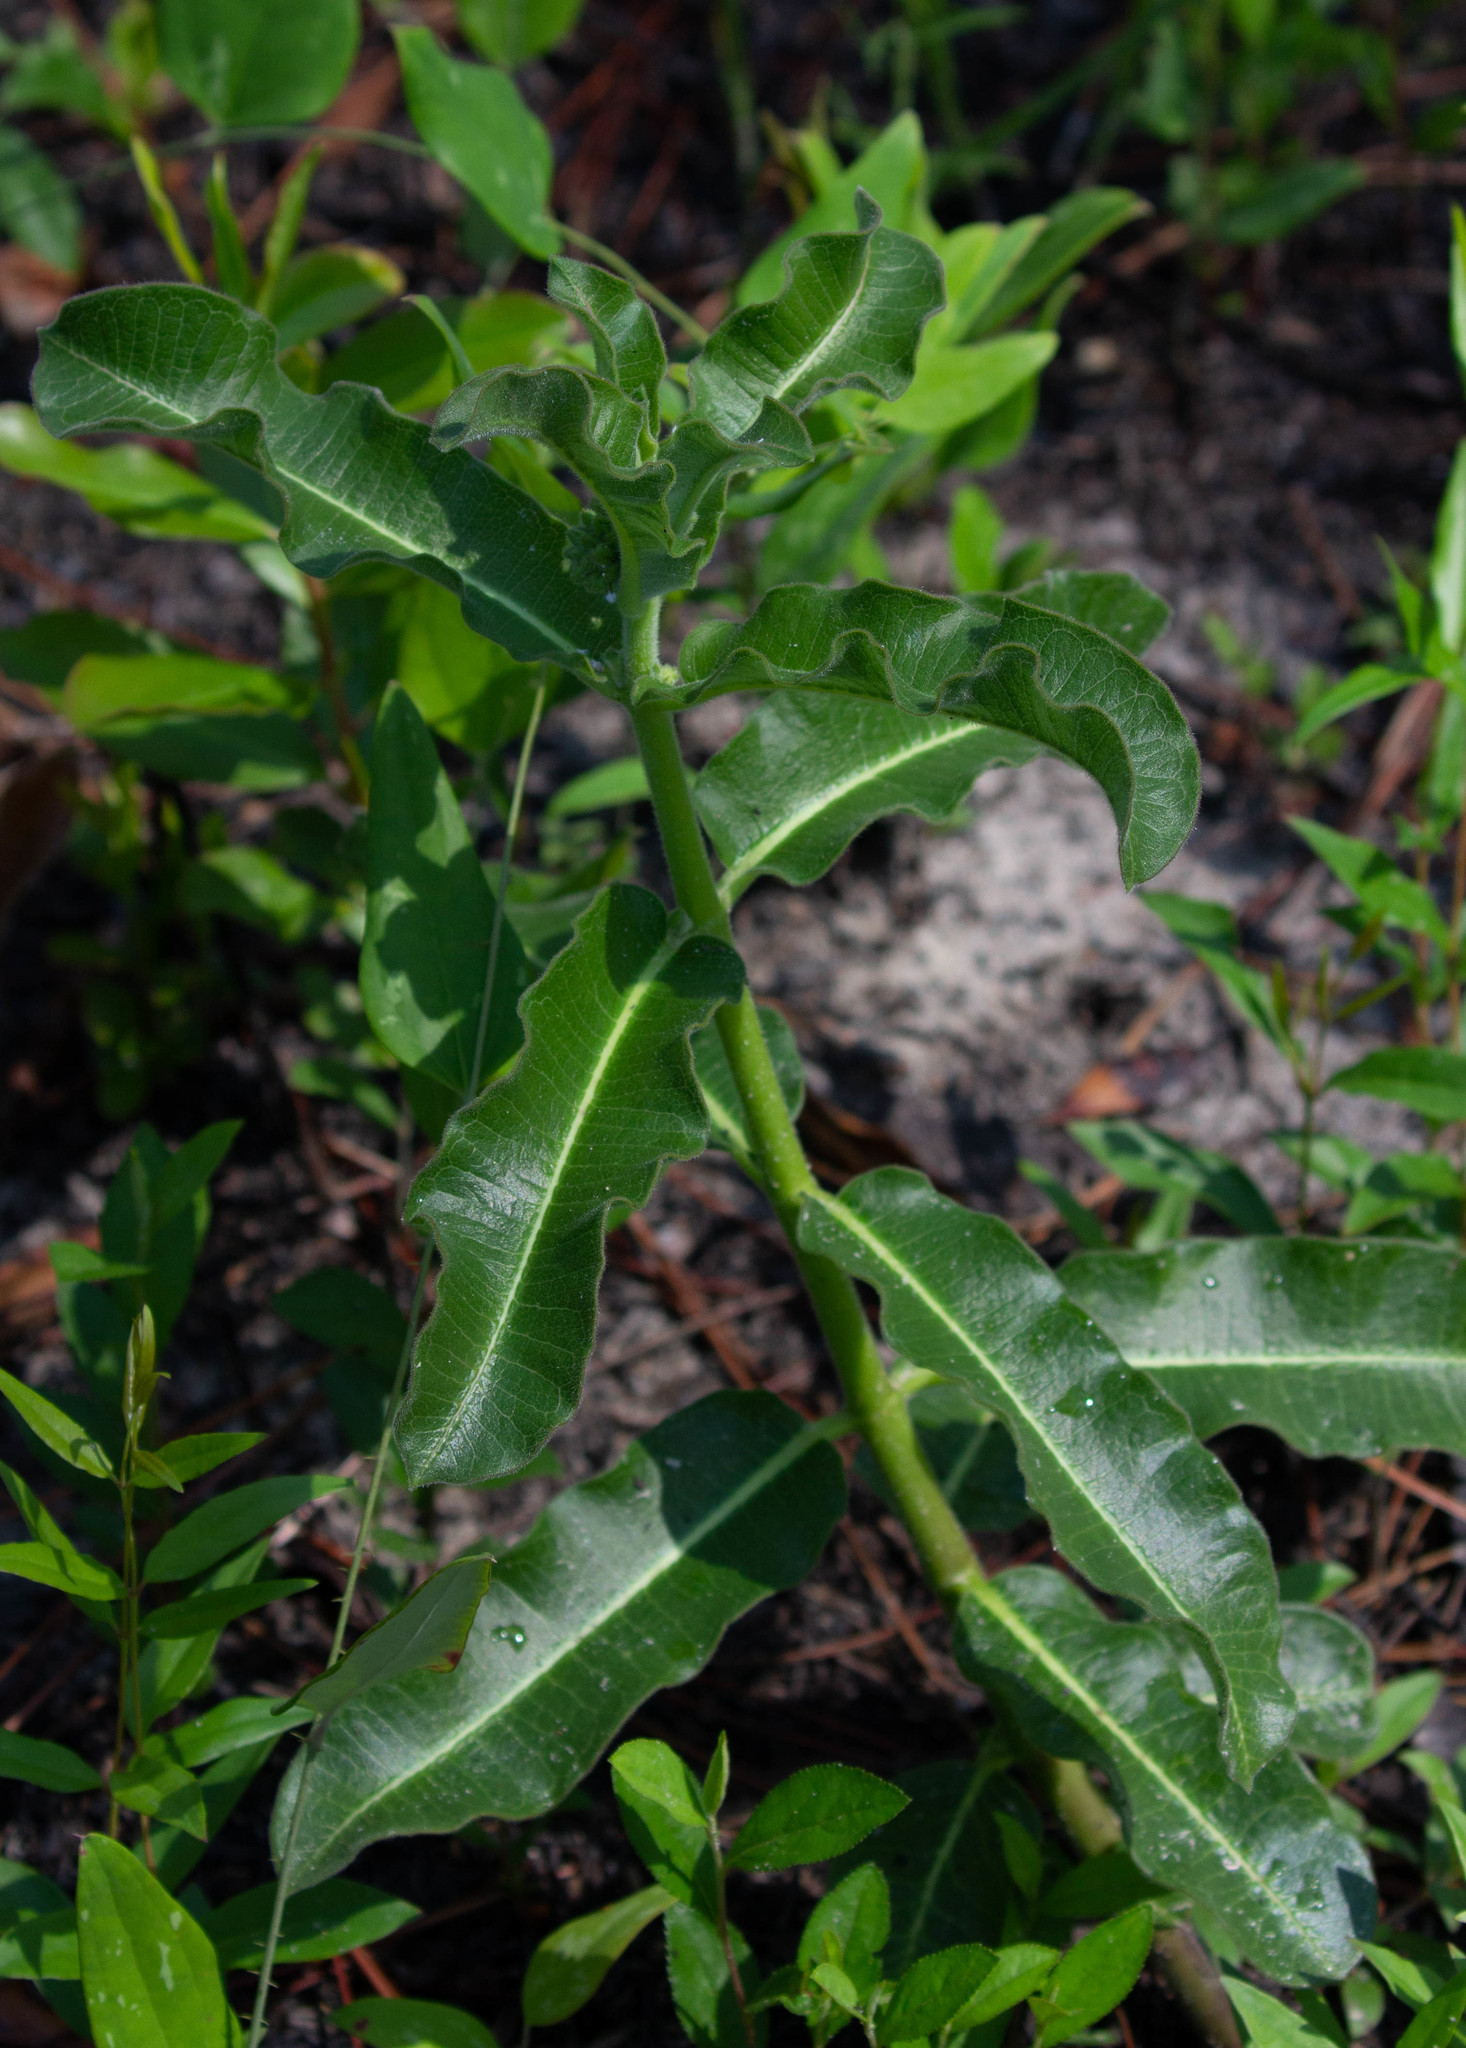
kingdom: Plantae
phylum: Tracheophyta
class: Magnoliopsida
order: Gentianales
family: Apocynaceae
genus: Asclepias
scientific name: Asclepias obovata
